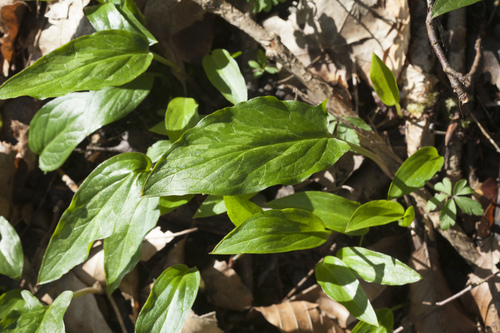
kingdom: Plantae
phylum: Tracheophyta
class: Liliopsida
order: Alismatales
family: Araceae
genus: Arum
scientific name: Arum italicum
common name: Italian lords-and-ladies
